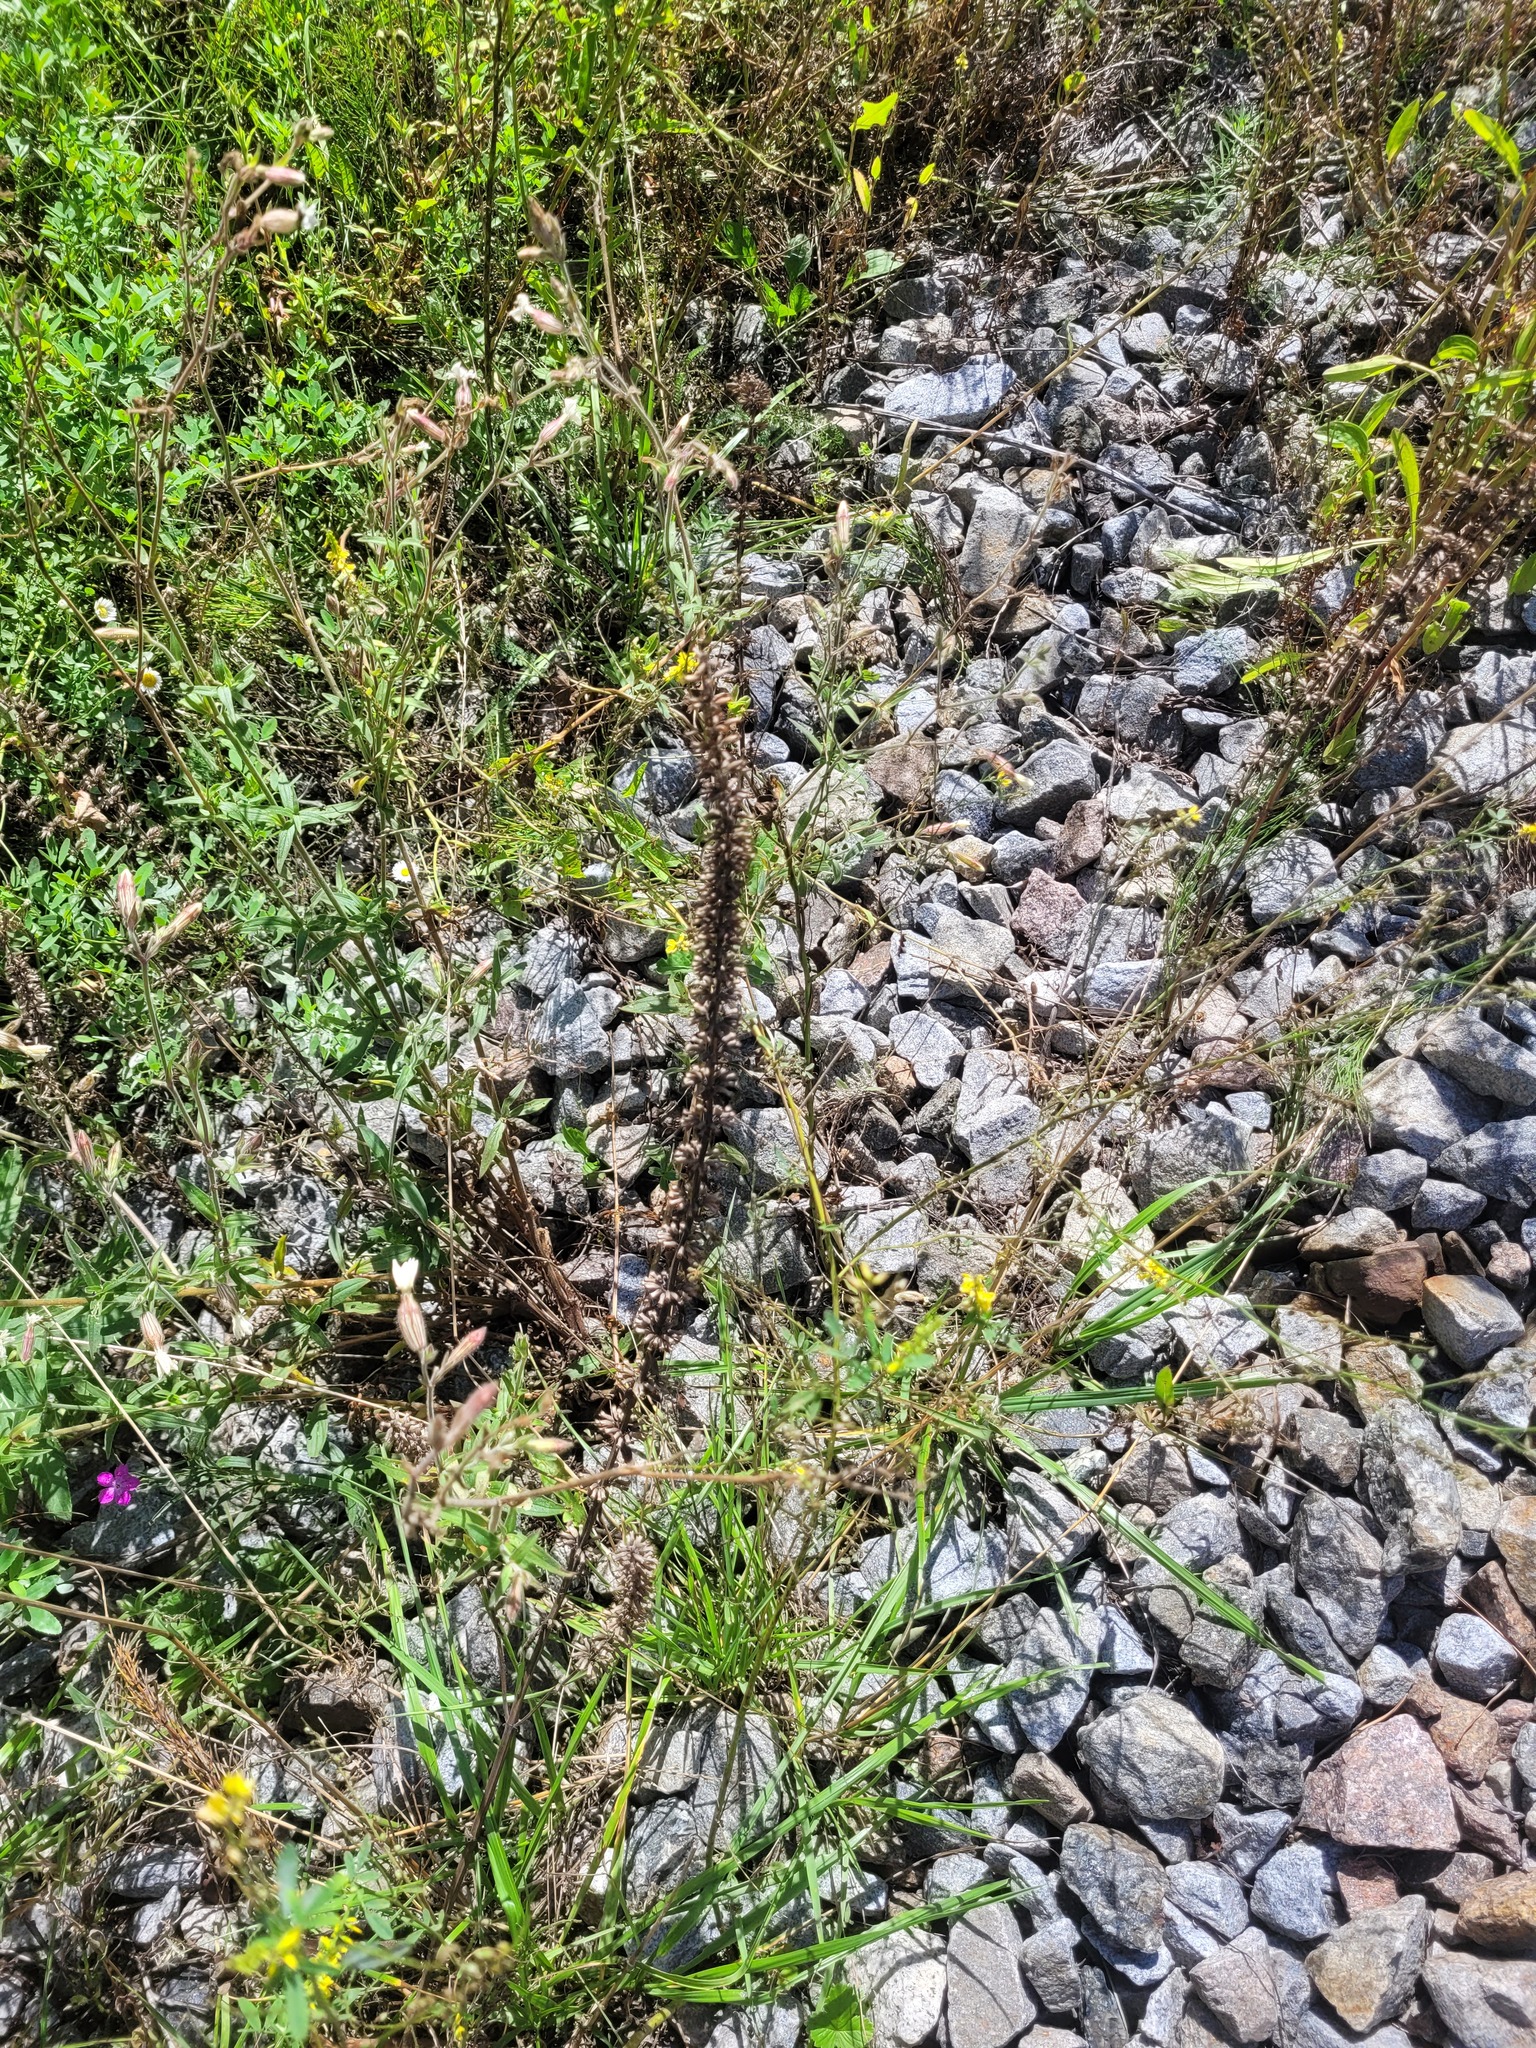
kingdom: Plantae
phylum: Tracheophyta
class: Magnoliopsida
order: Lamiales
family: Lamiaceae
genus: Dracocephalum
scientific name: Dracocephalum thymiflorum
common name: Thymeleaf dragonhead
